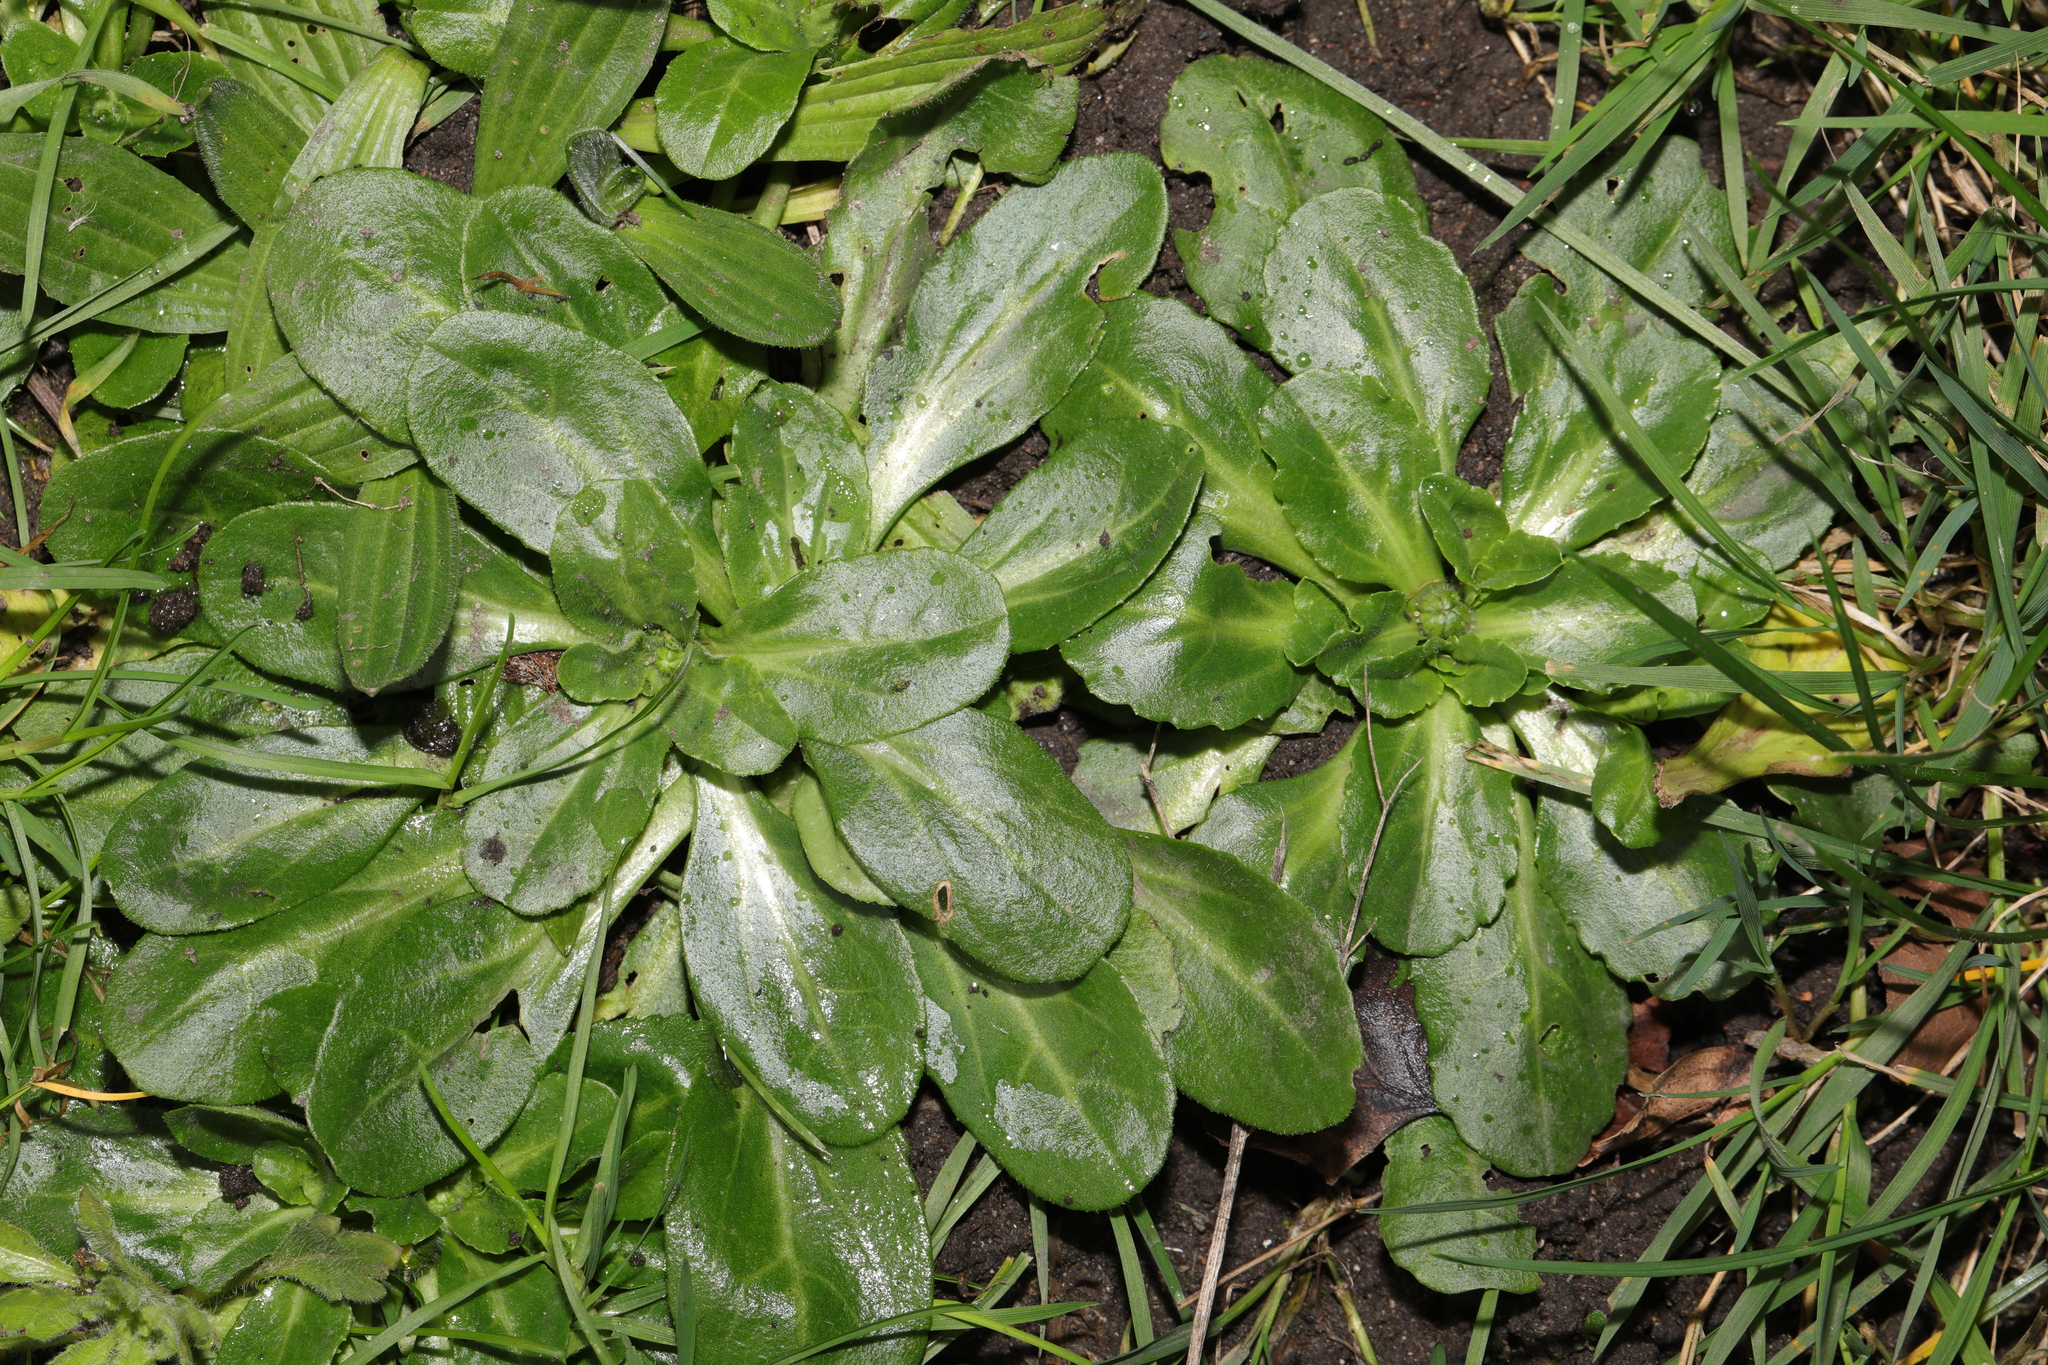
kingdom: Plantae
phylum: Tracheophyta
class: Magnoliopsida
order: Asterales
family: Asteraceae
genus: Bellis
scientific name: Bellis perennis
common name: Lawndaisy
